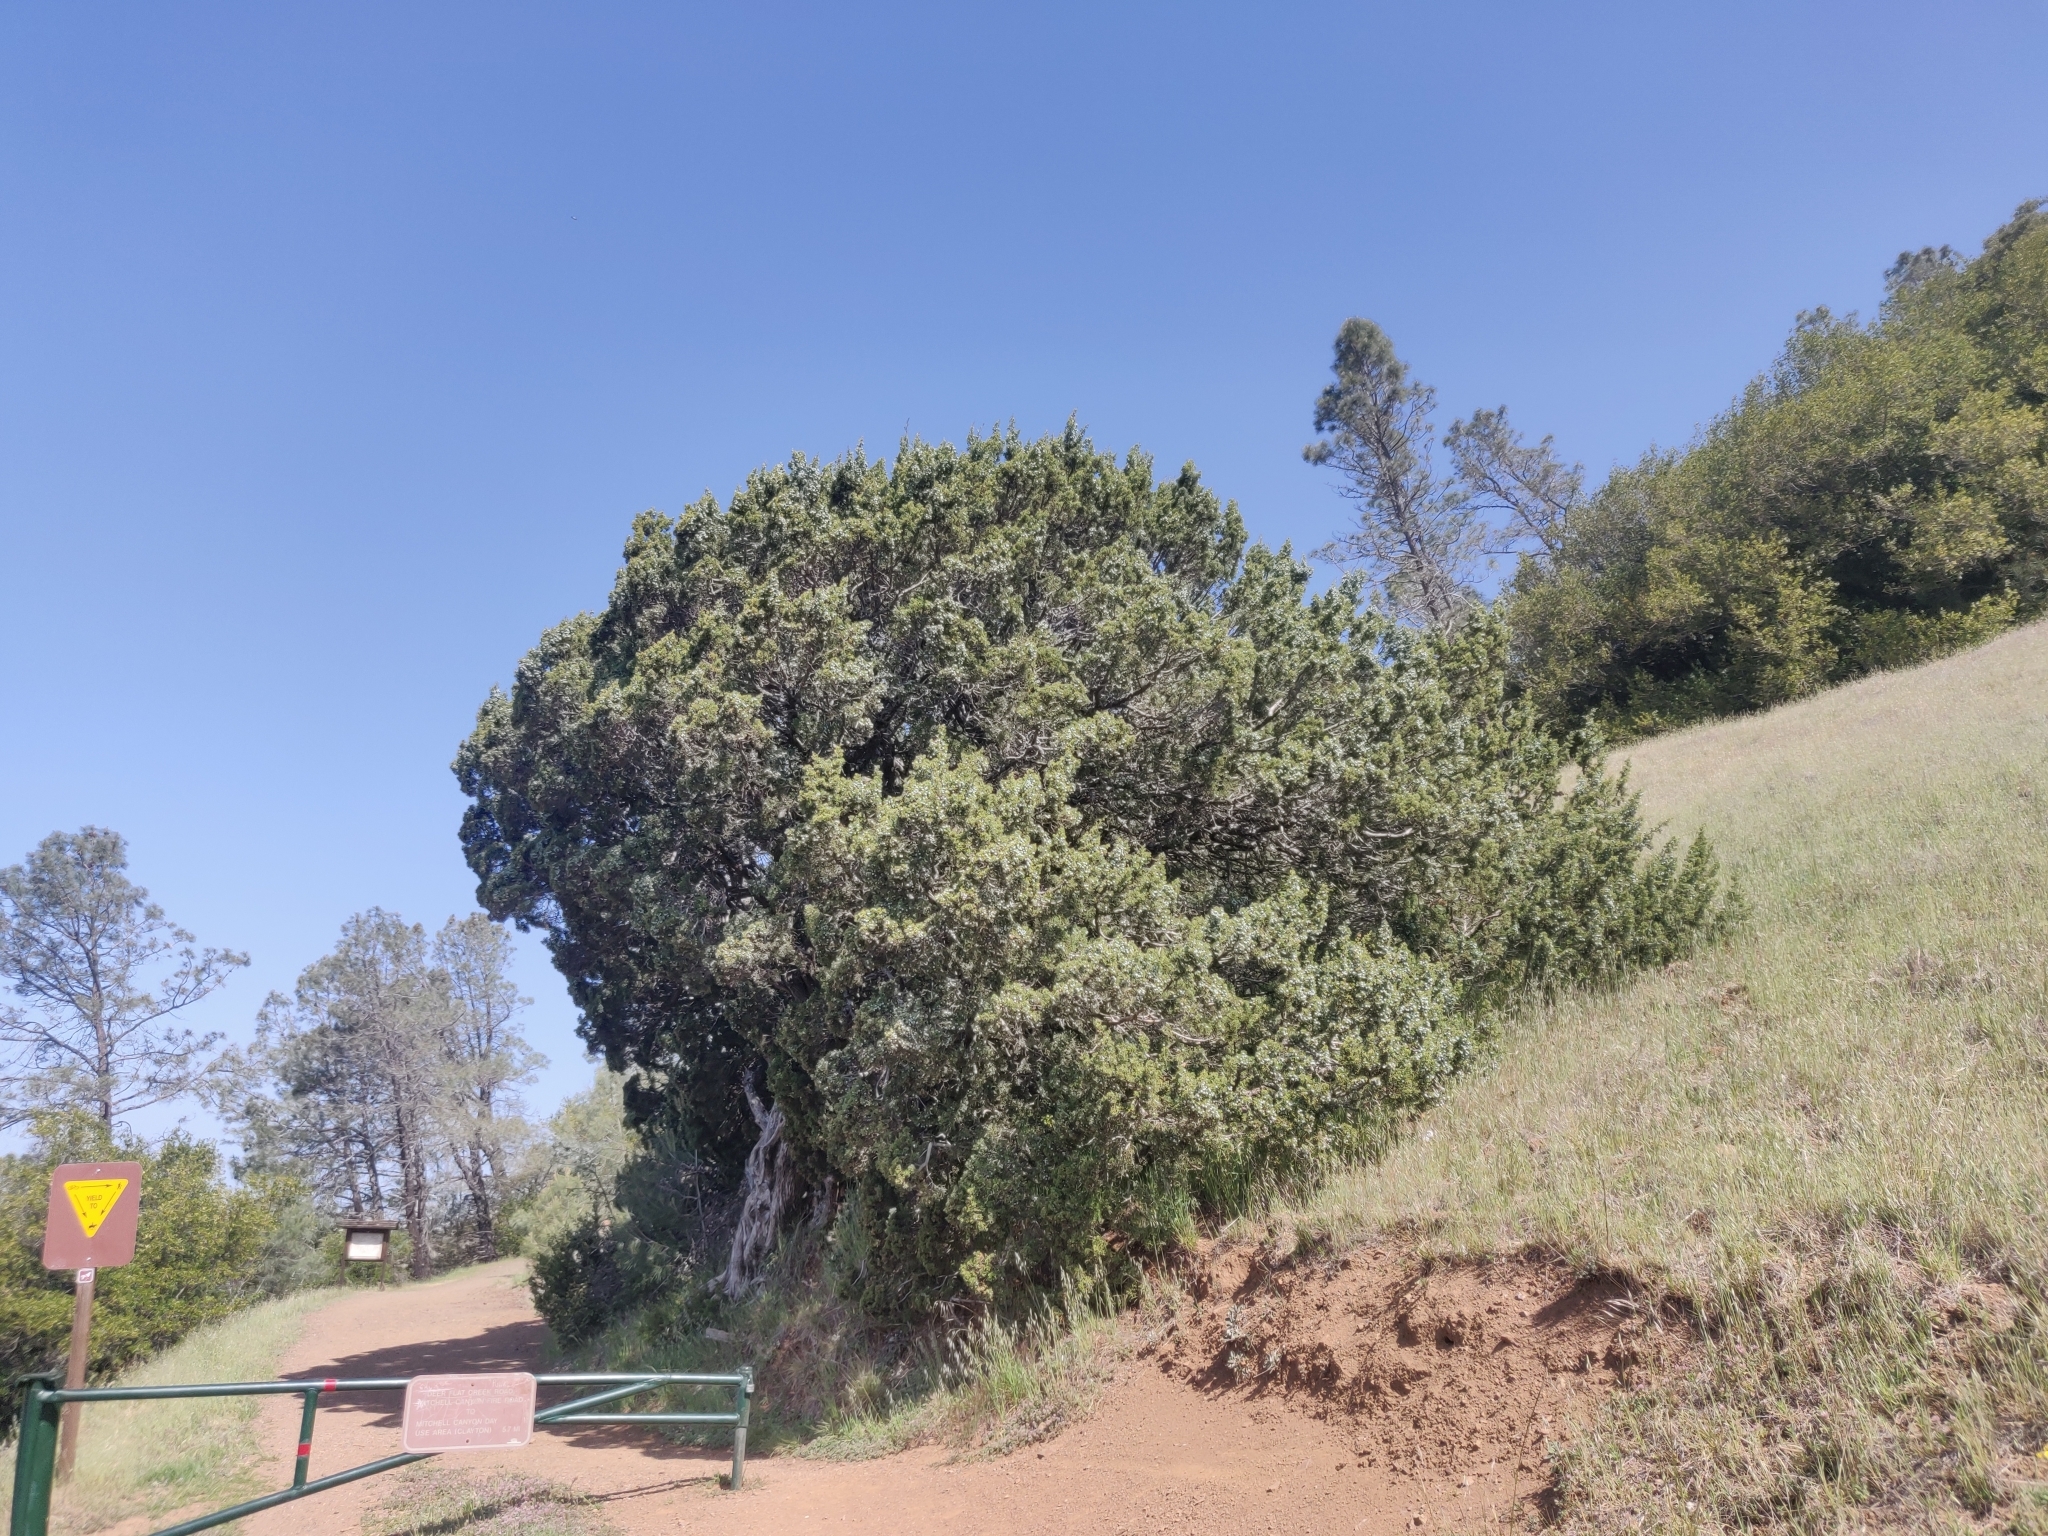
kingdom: Plantae
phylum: Tracheophyta
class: Pinopsida
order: Pinales
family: Cupressaceae
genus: Juniperus
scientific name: Juniperus californica
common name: California juniper
